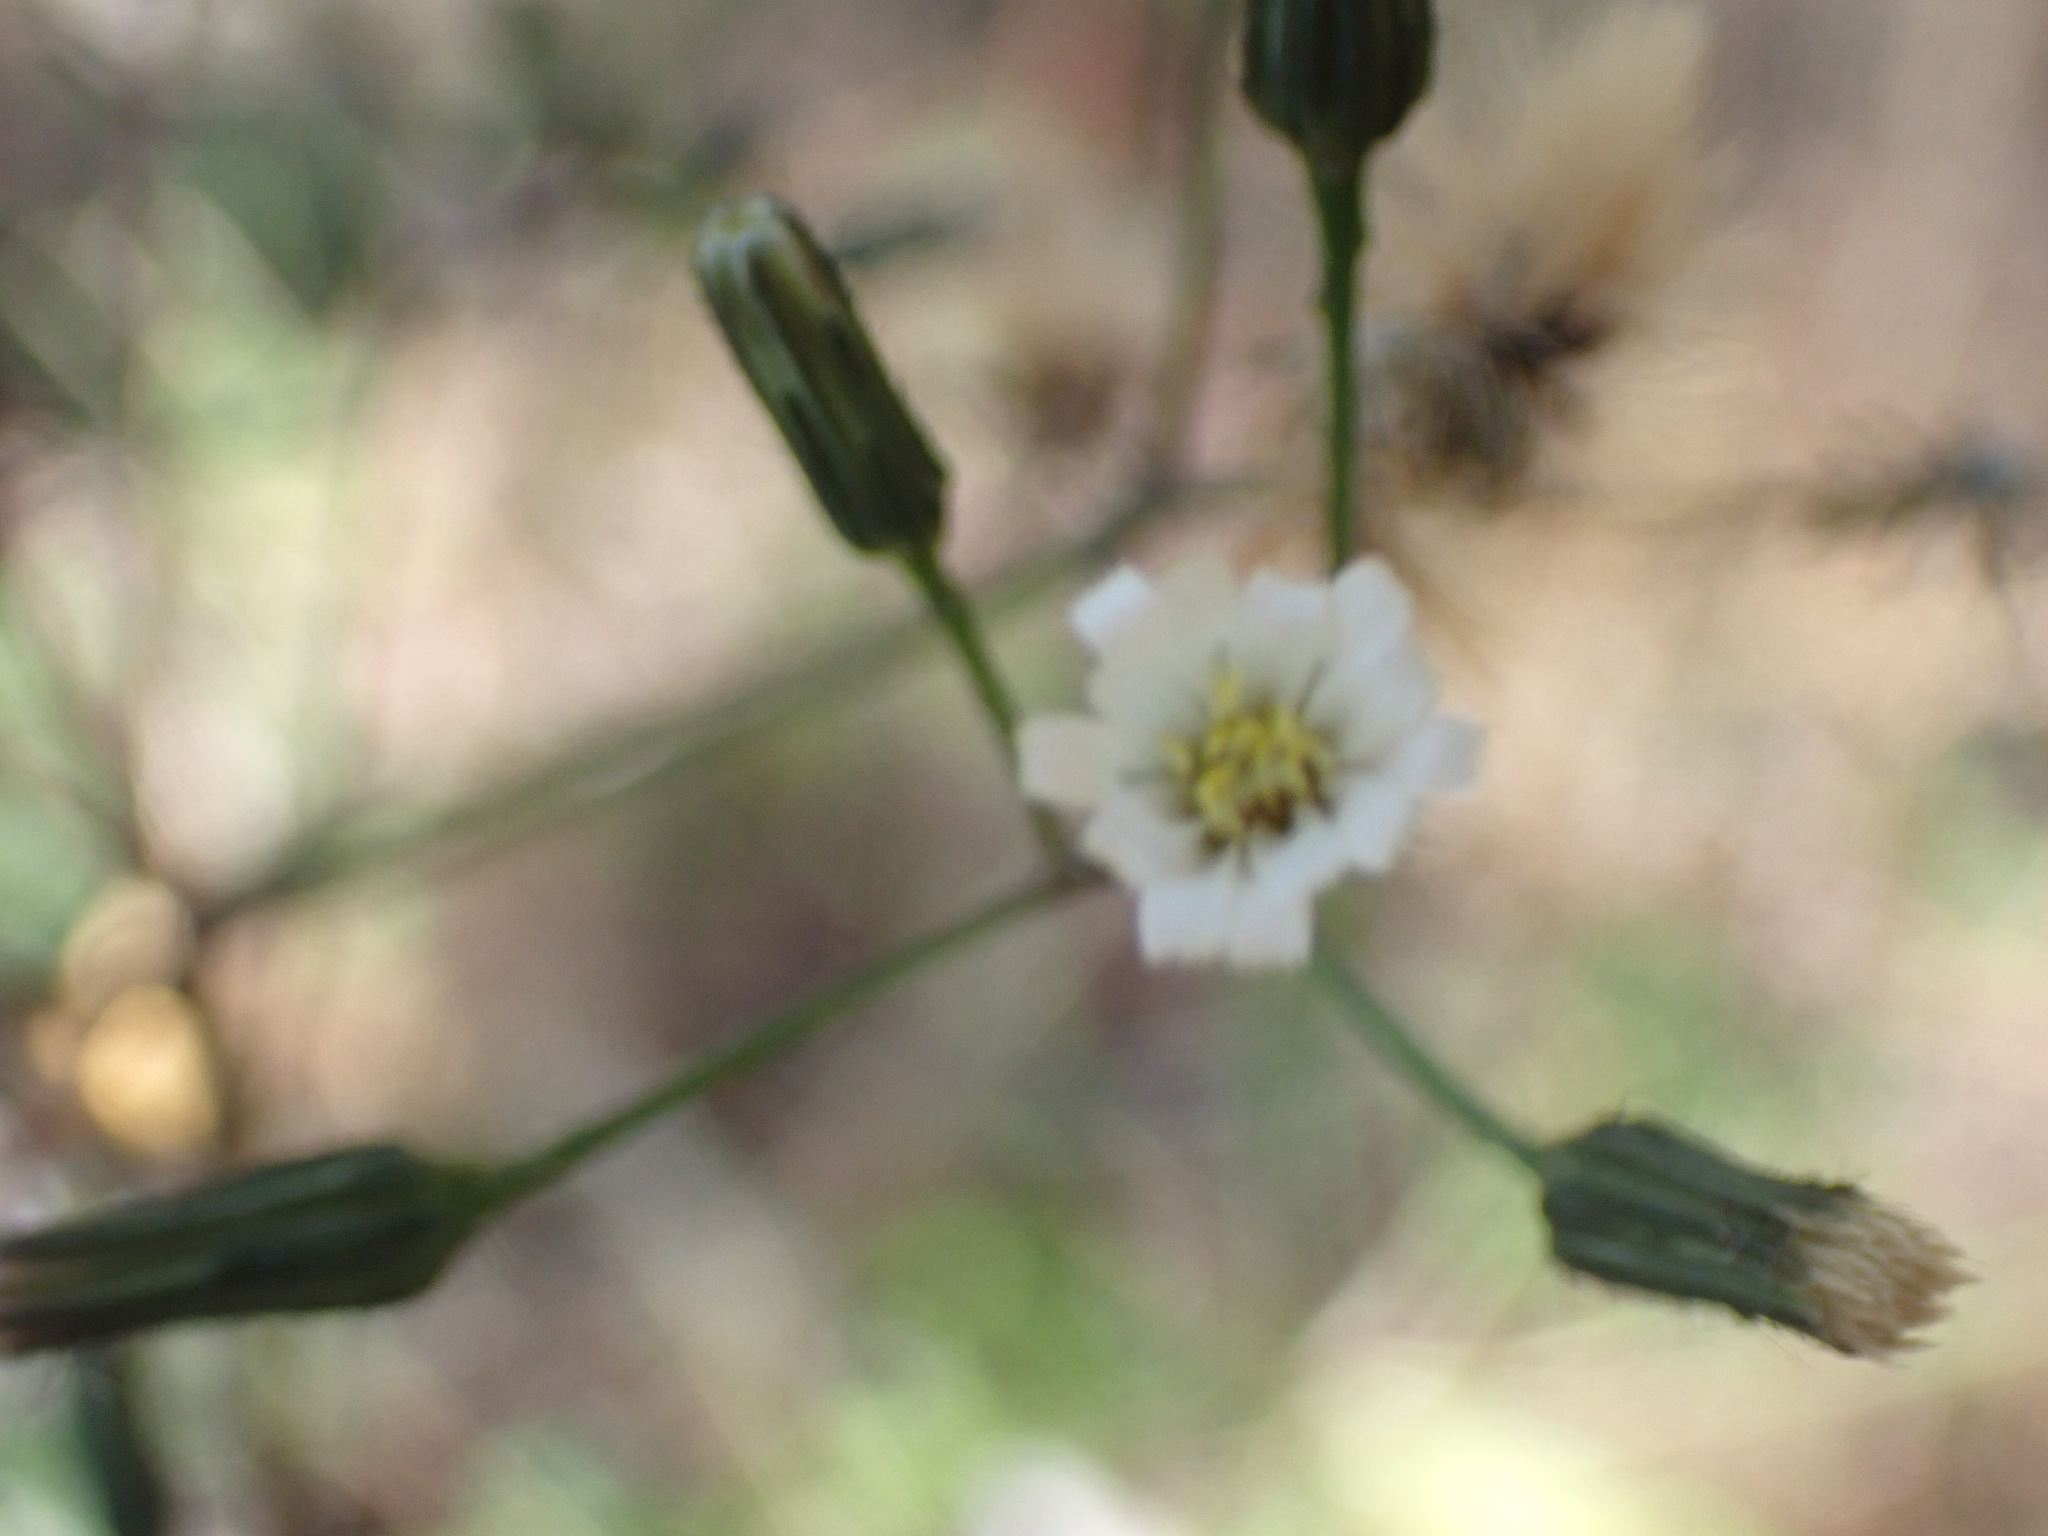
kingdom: Plantae
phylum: Tracheophyta
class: Magnoliopsida
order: Asterales
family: Asteraceae
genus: Hieracium
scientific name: Hieracium albiflorum
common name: White hawkweed
